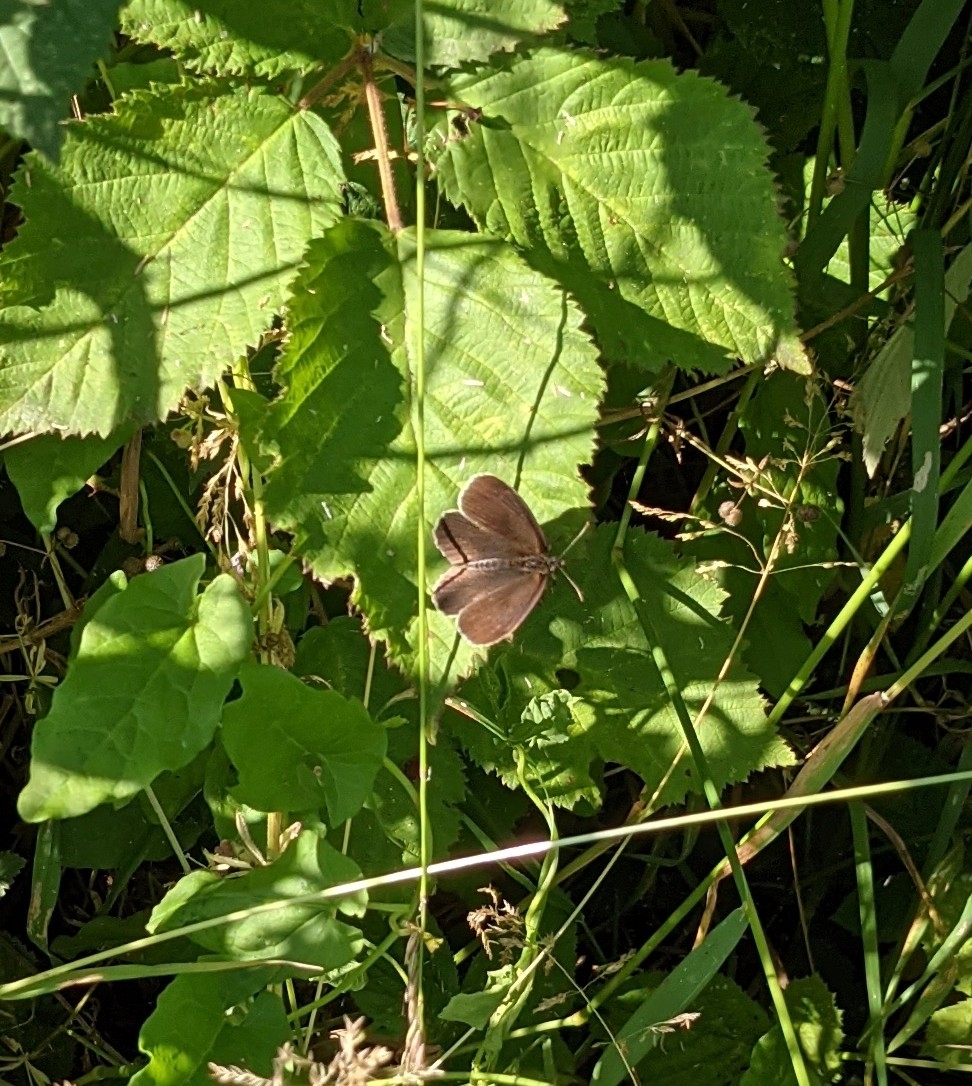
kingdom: Animalia
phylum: Arthropoda
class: Insecta
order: Lepidoptera
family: Nymphalidae
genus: Aphantopus
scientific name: Aphantopus hyperantus
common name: Ringlet
